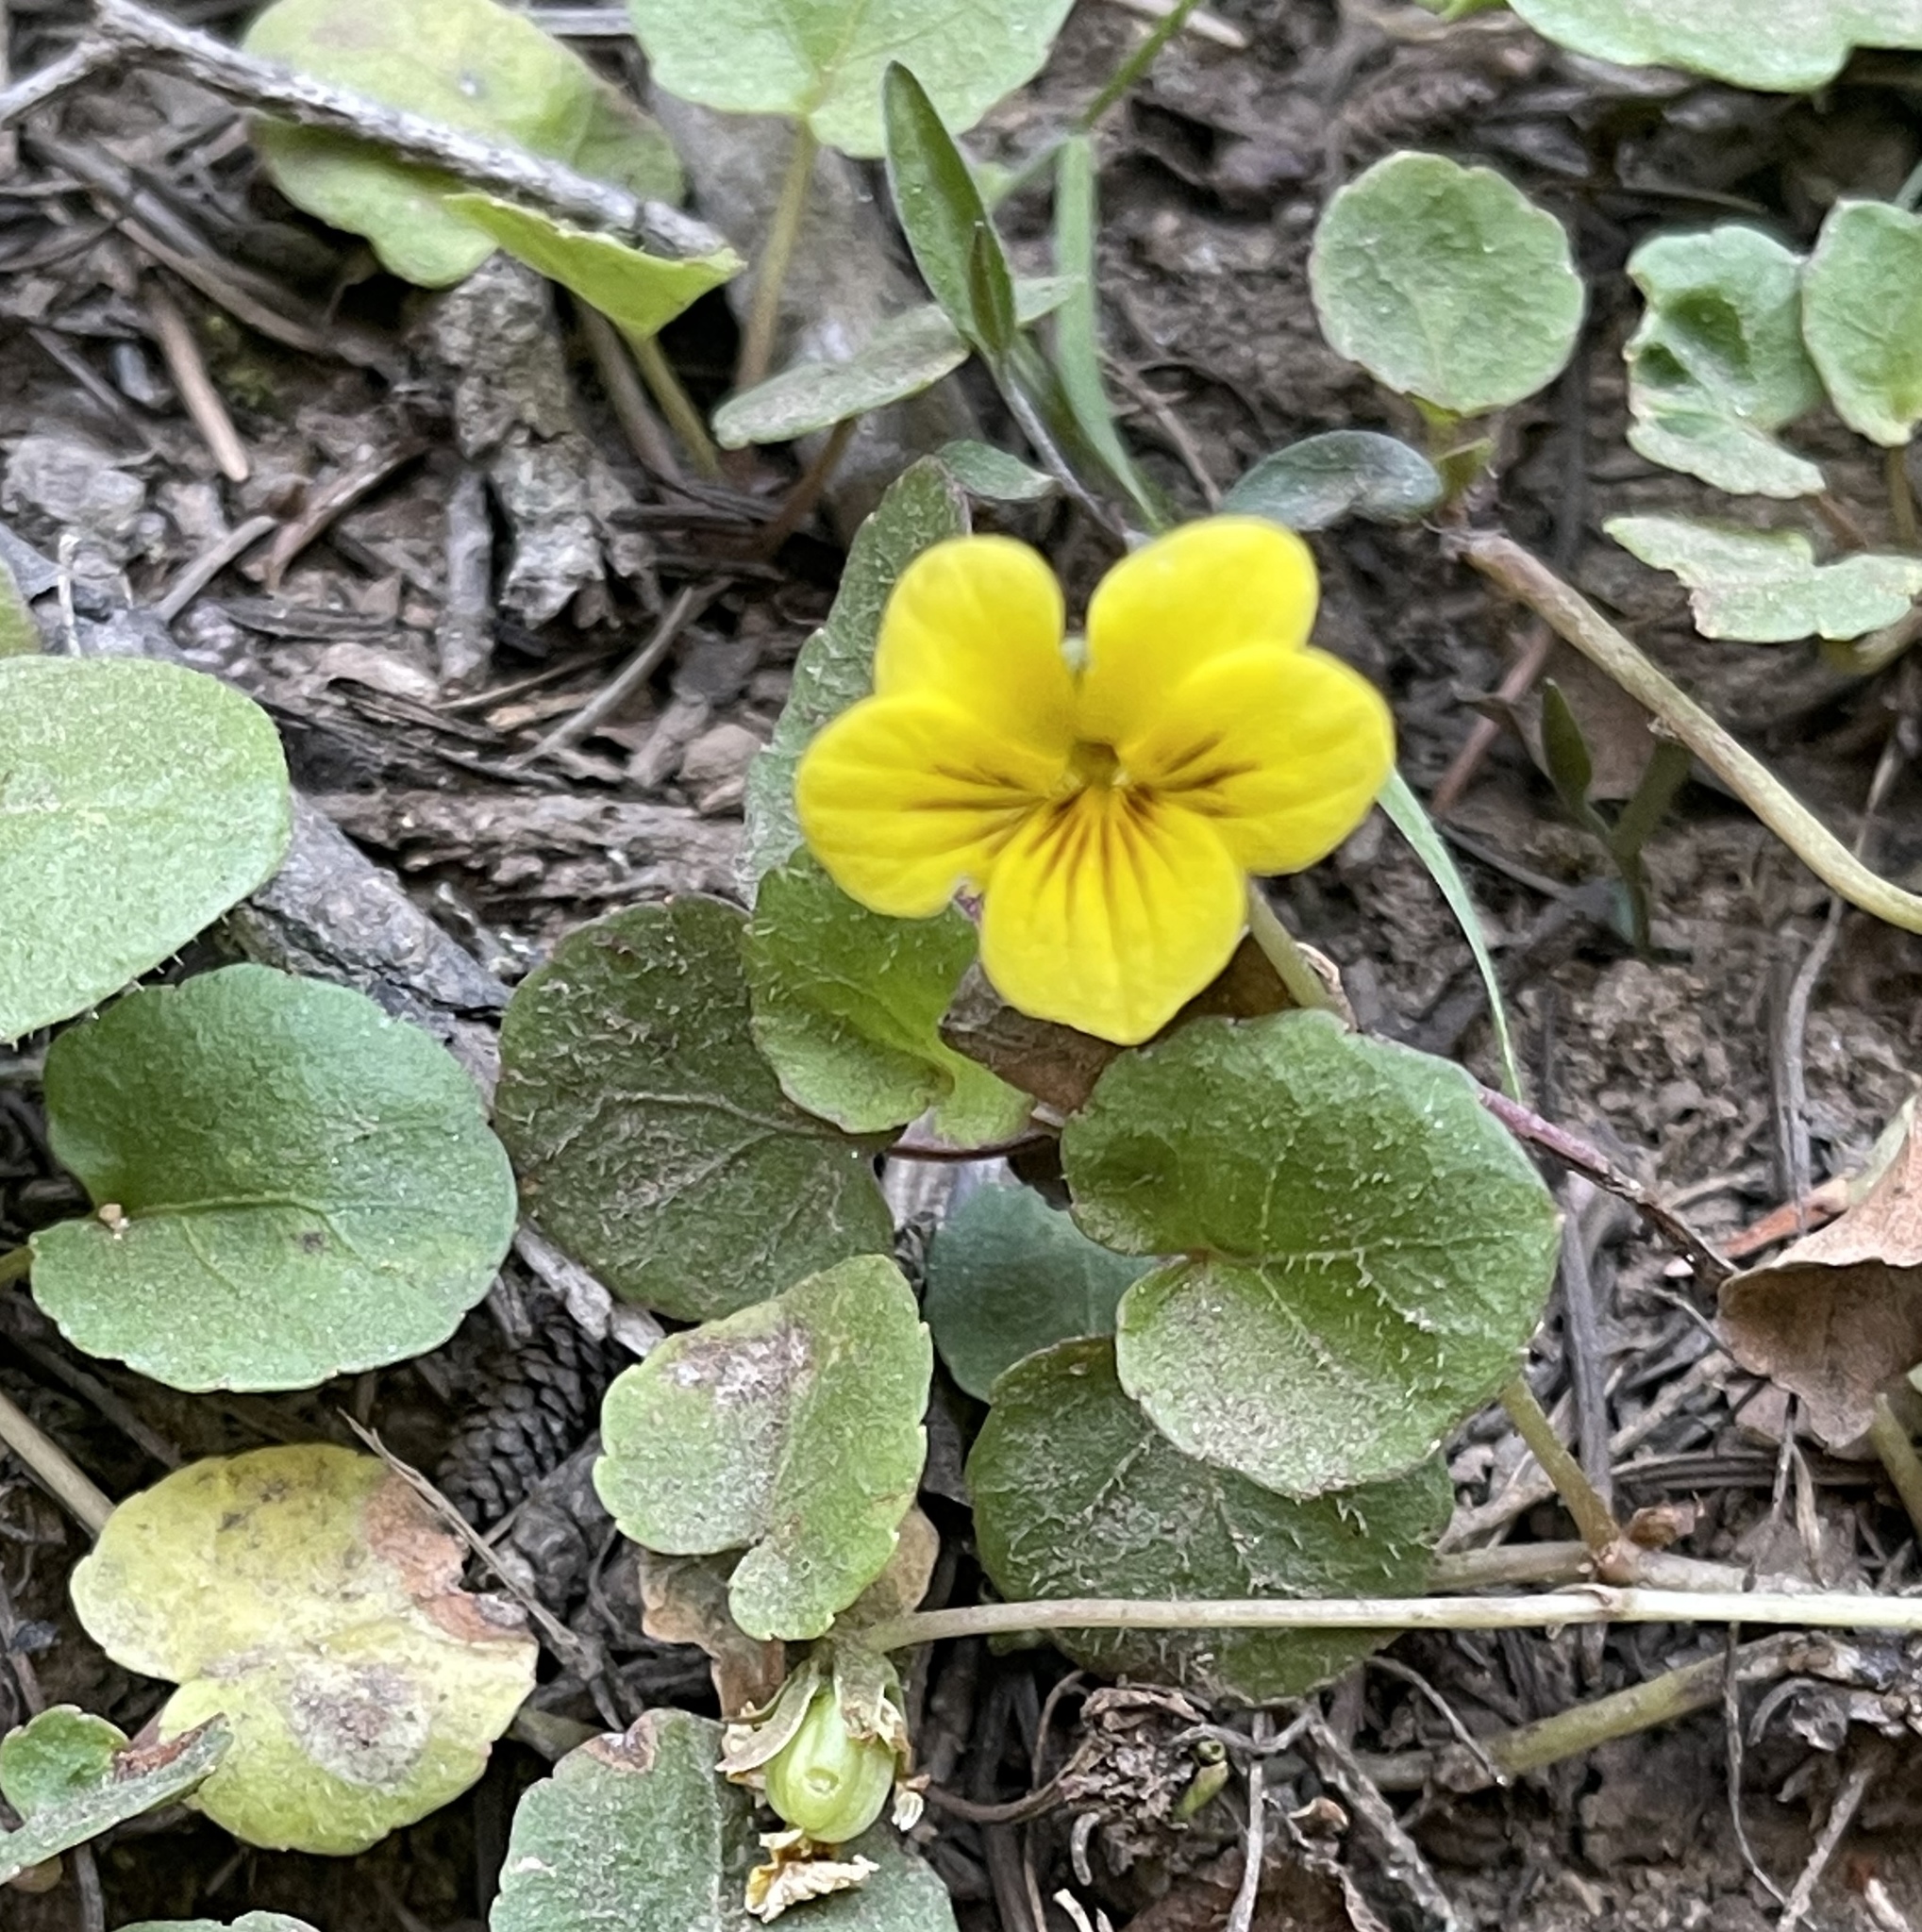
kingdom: Plantae
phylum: Tracheophyta
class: Magnoliopsida
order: Malpighiales
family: Violaceae
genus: Viola
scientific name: Viola sempervirens
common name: Evergreen violet
